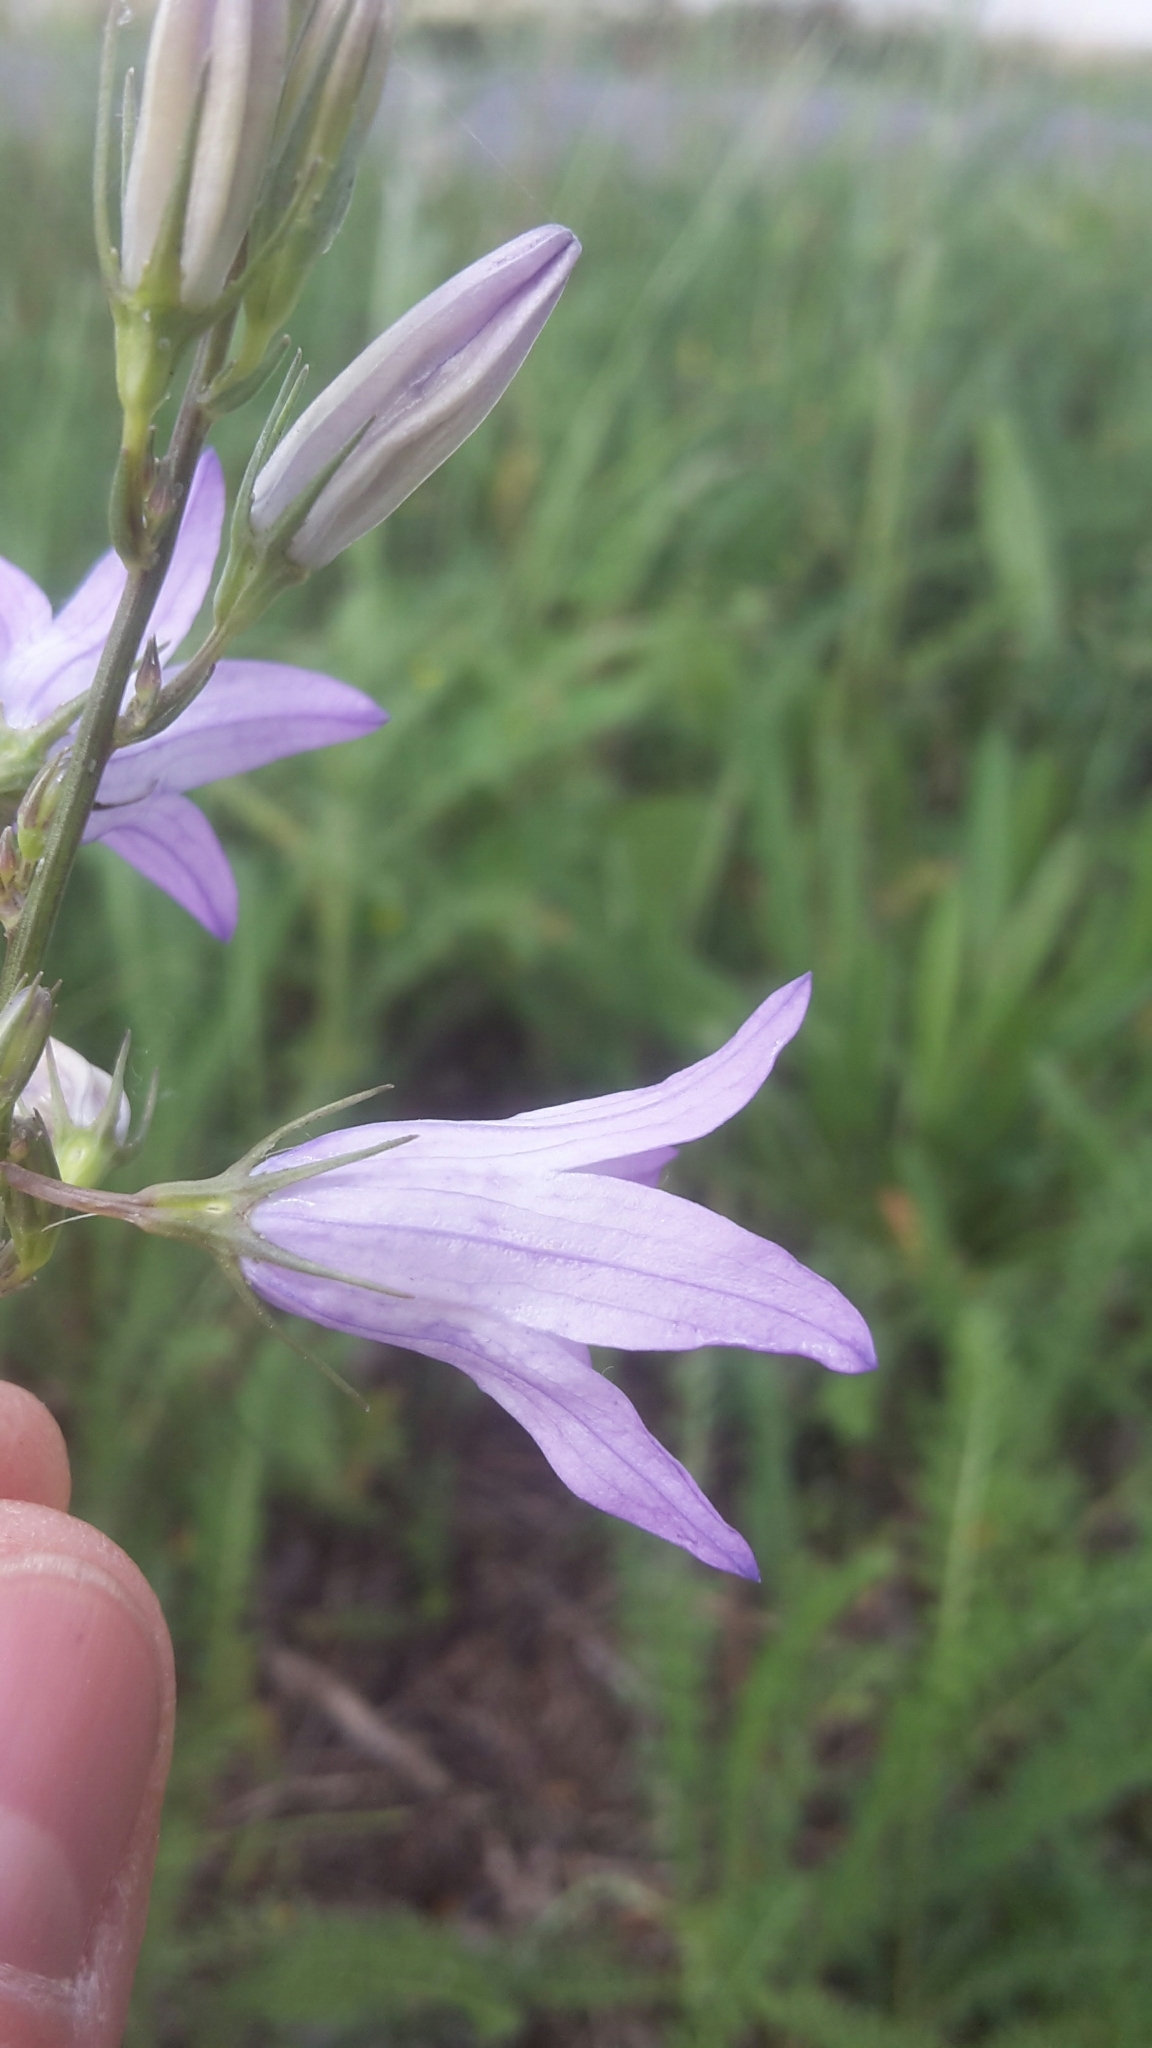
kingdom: Plantae
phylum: Tracheophyta
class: Magnoliopsida
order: Asterales
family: Campanulaceae
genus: Campanula
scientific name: Campanula rapunculus
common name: Rampion bellflower
